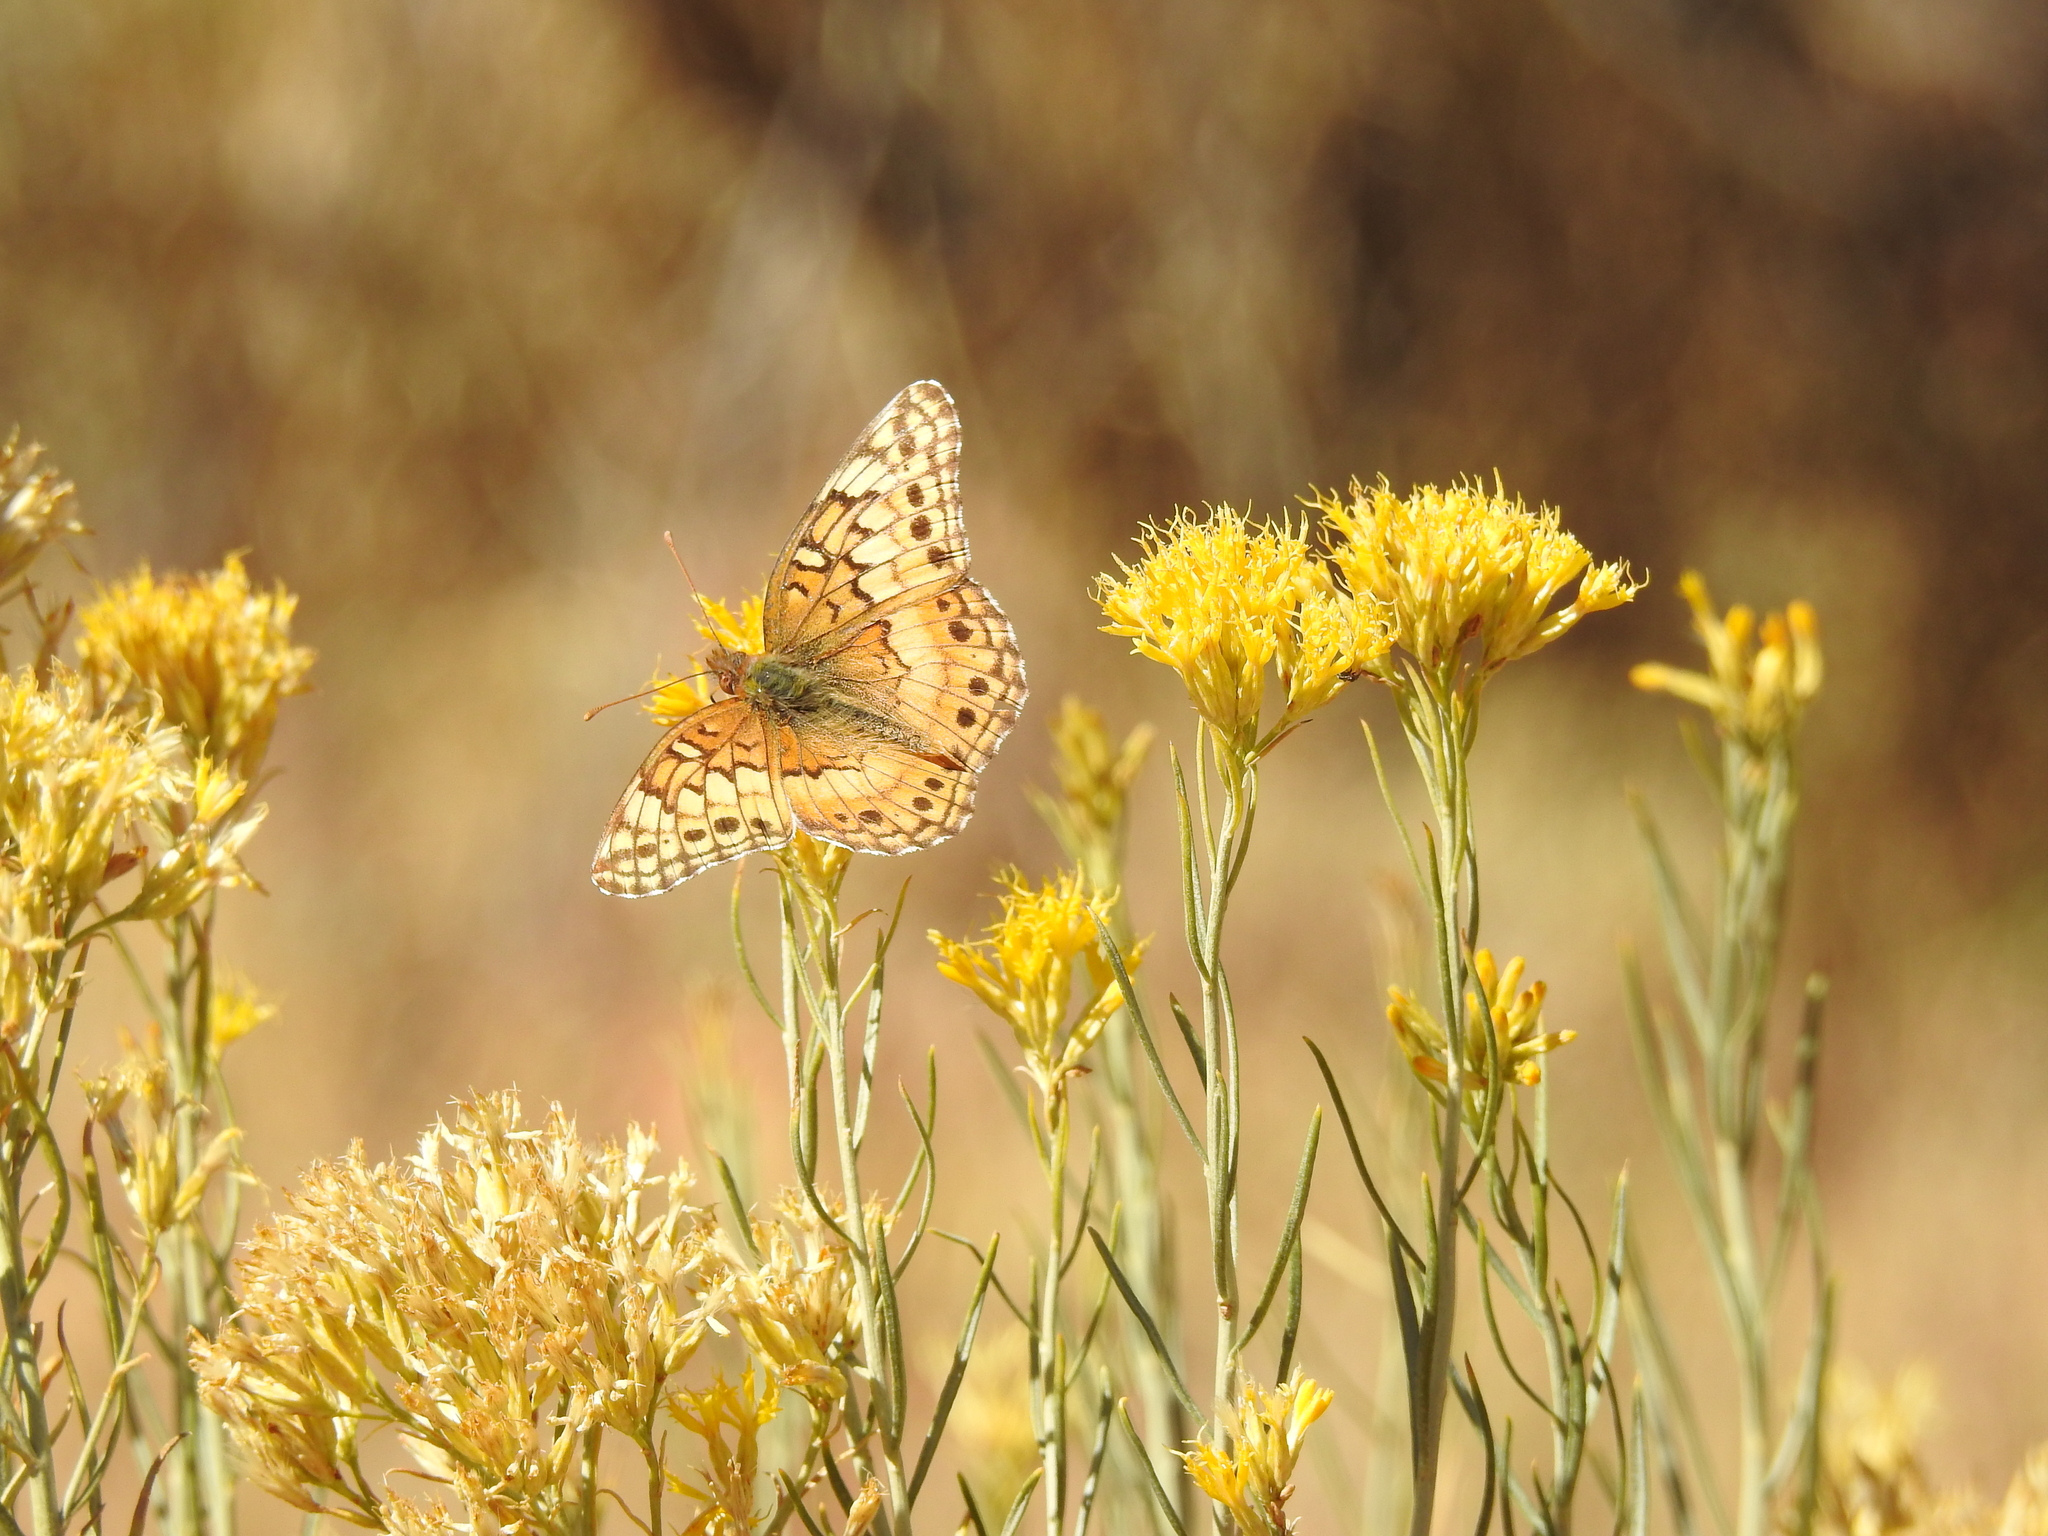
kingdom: Animalia
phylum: Arthropoda
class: Insecta
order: Lepidoptera
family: Nymphalidae
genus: Euptoieta
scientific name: Euptoieta claudia
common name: Variegated fritillary
